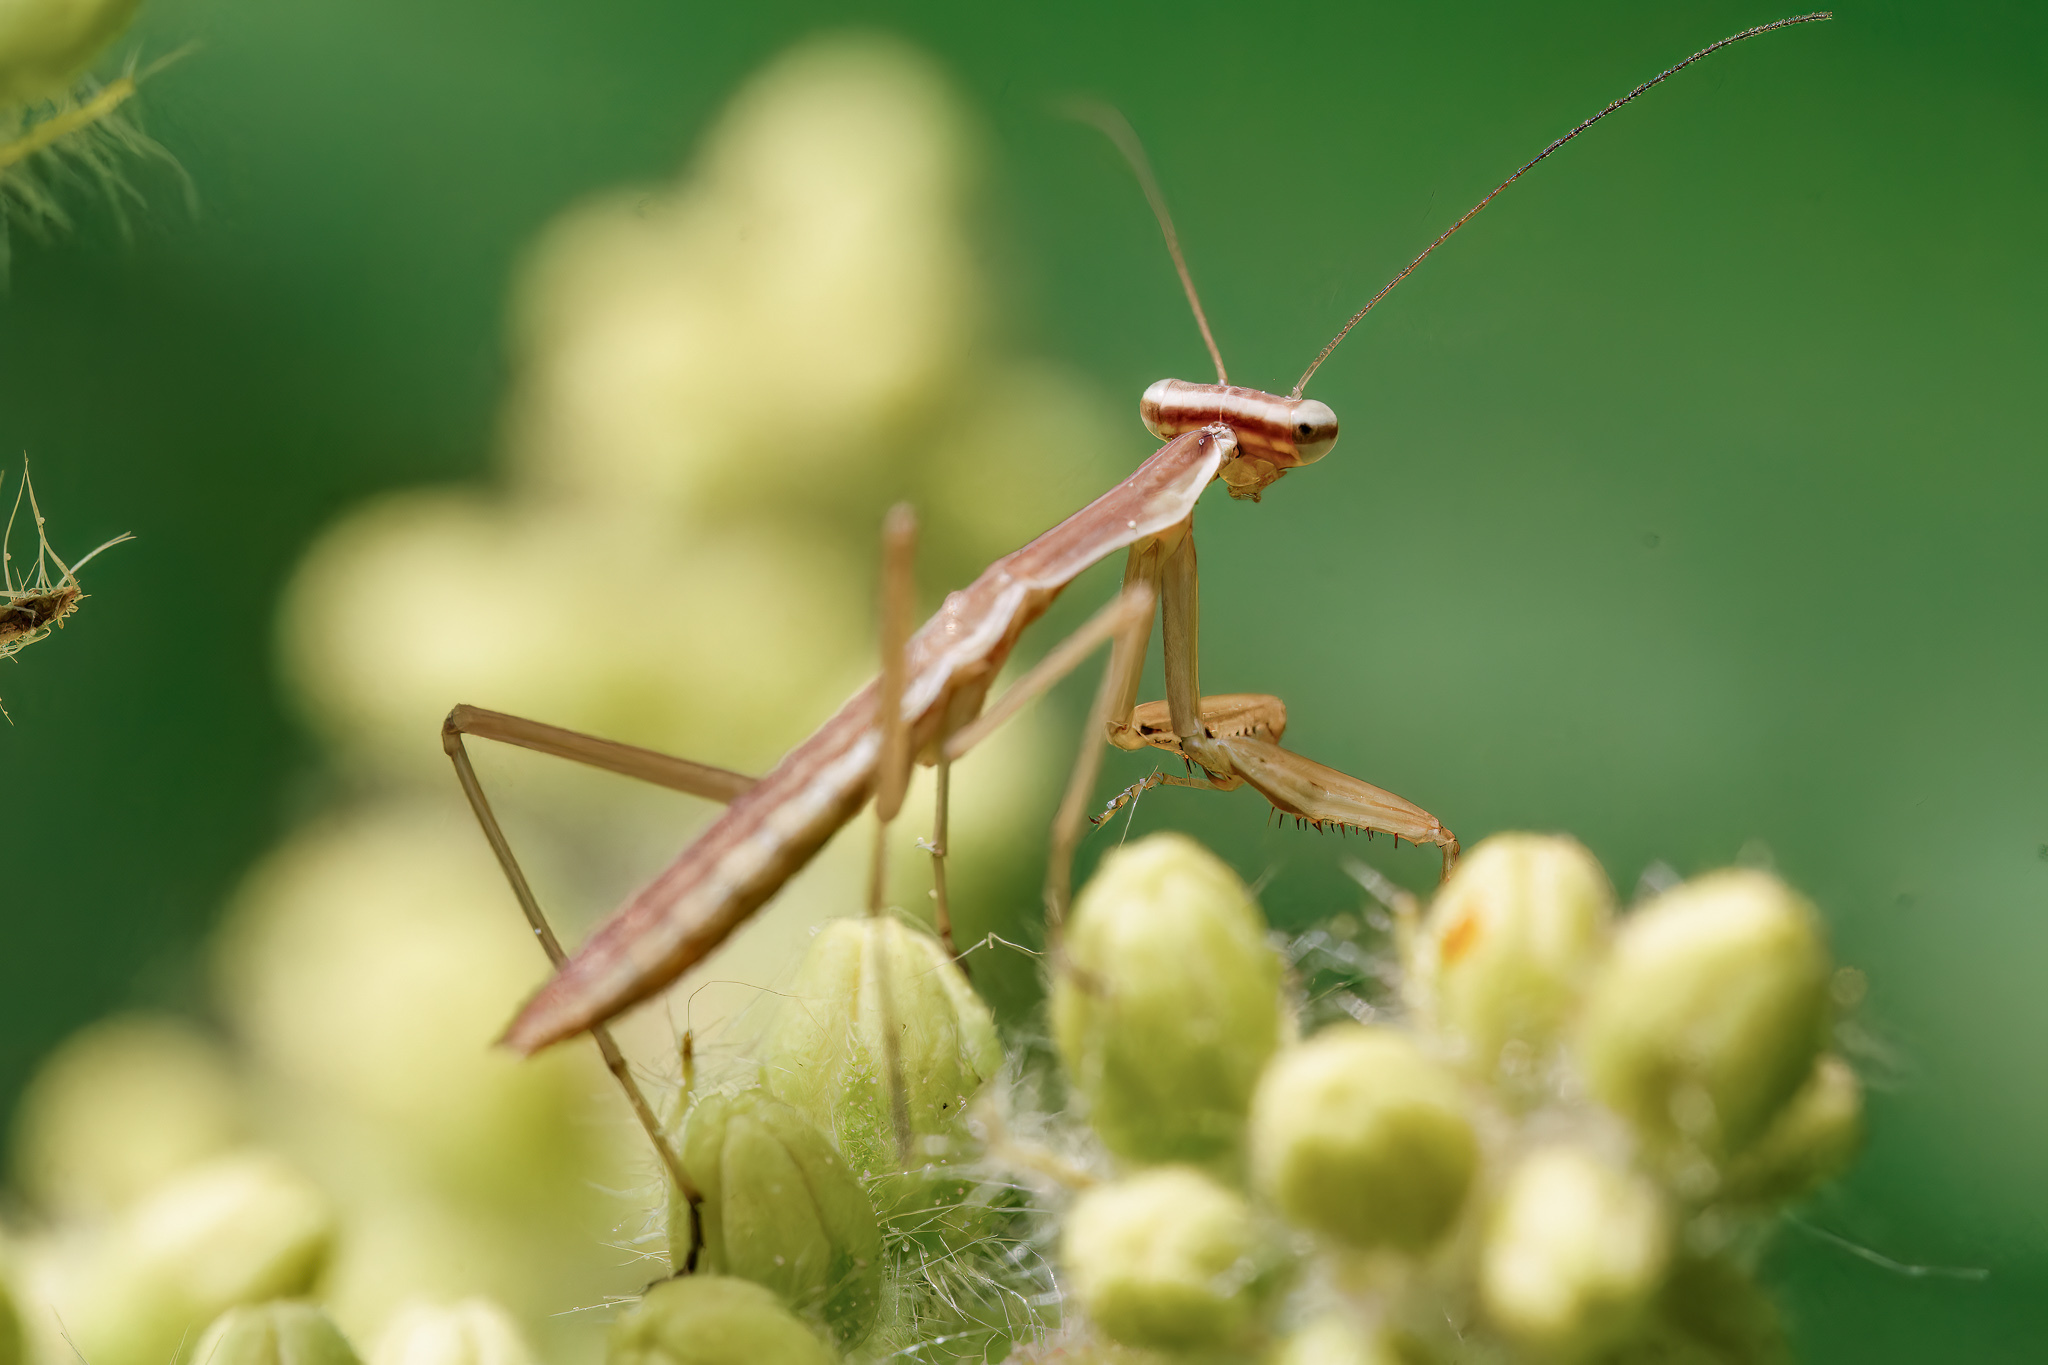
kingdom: Animalia
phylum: Arthropoda
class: Insecta
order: Mantodea
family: Mantidae
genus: Tenodera
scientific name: Tenodera sinensis
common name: Chinese mantis
